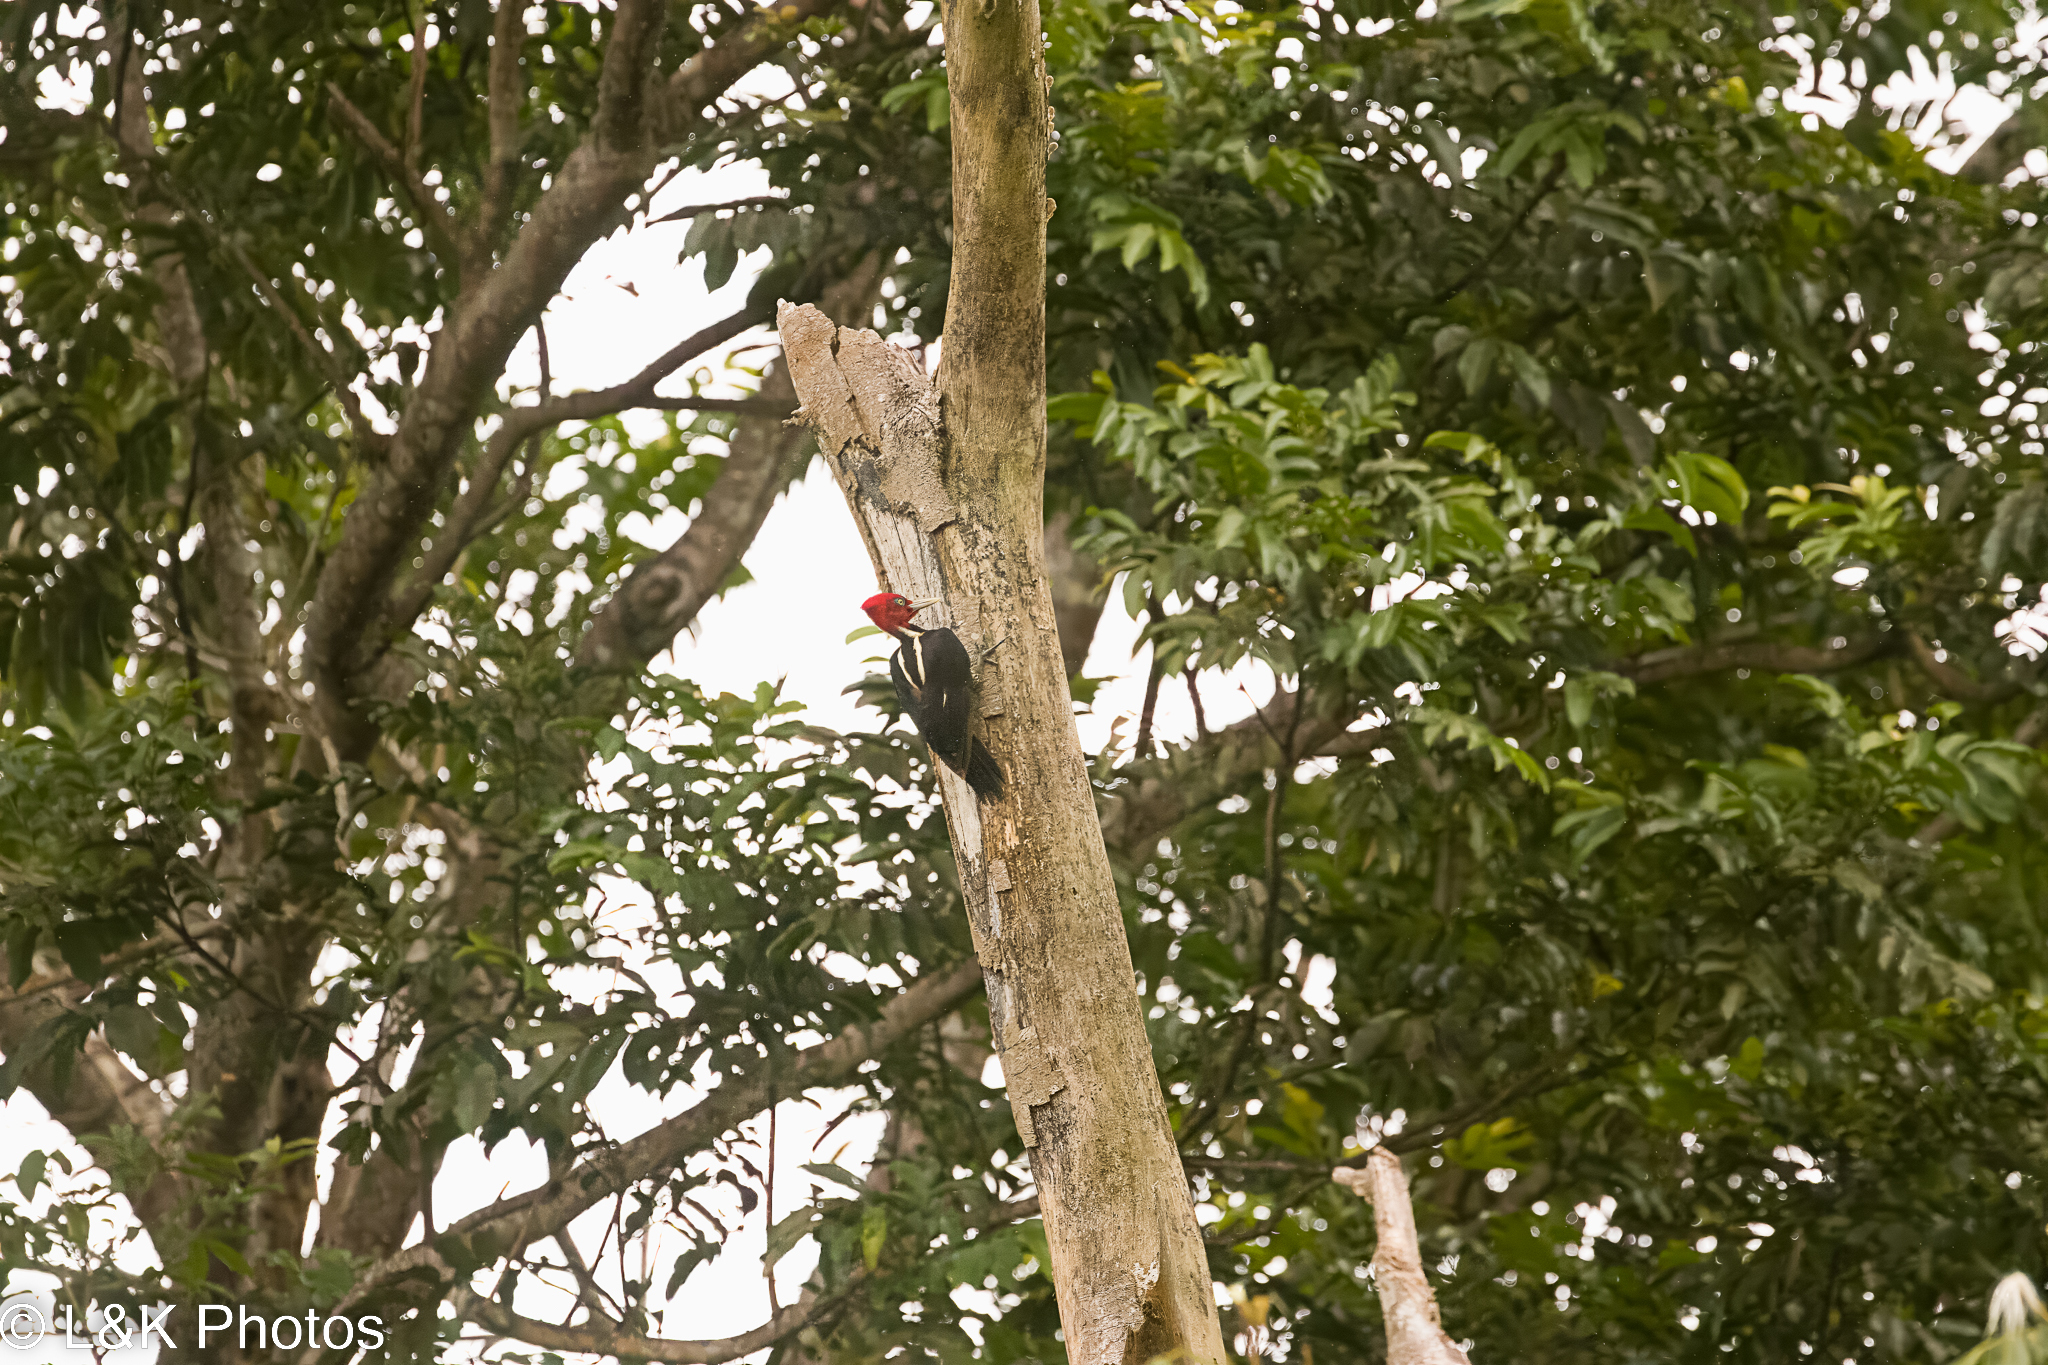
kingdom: Animalia
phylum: Chordata
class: Aves
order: Piciformes
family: Picidae
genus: Campephilus
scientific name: Campephilus guatemalensis
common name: Pale-billed woodpecker
